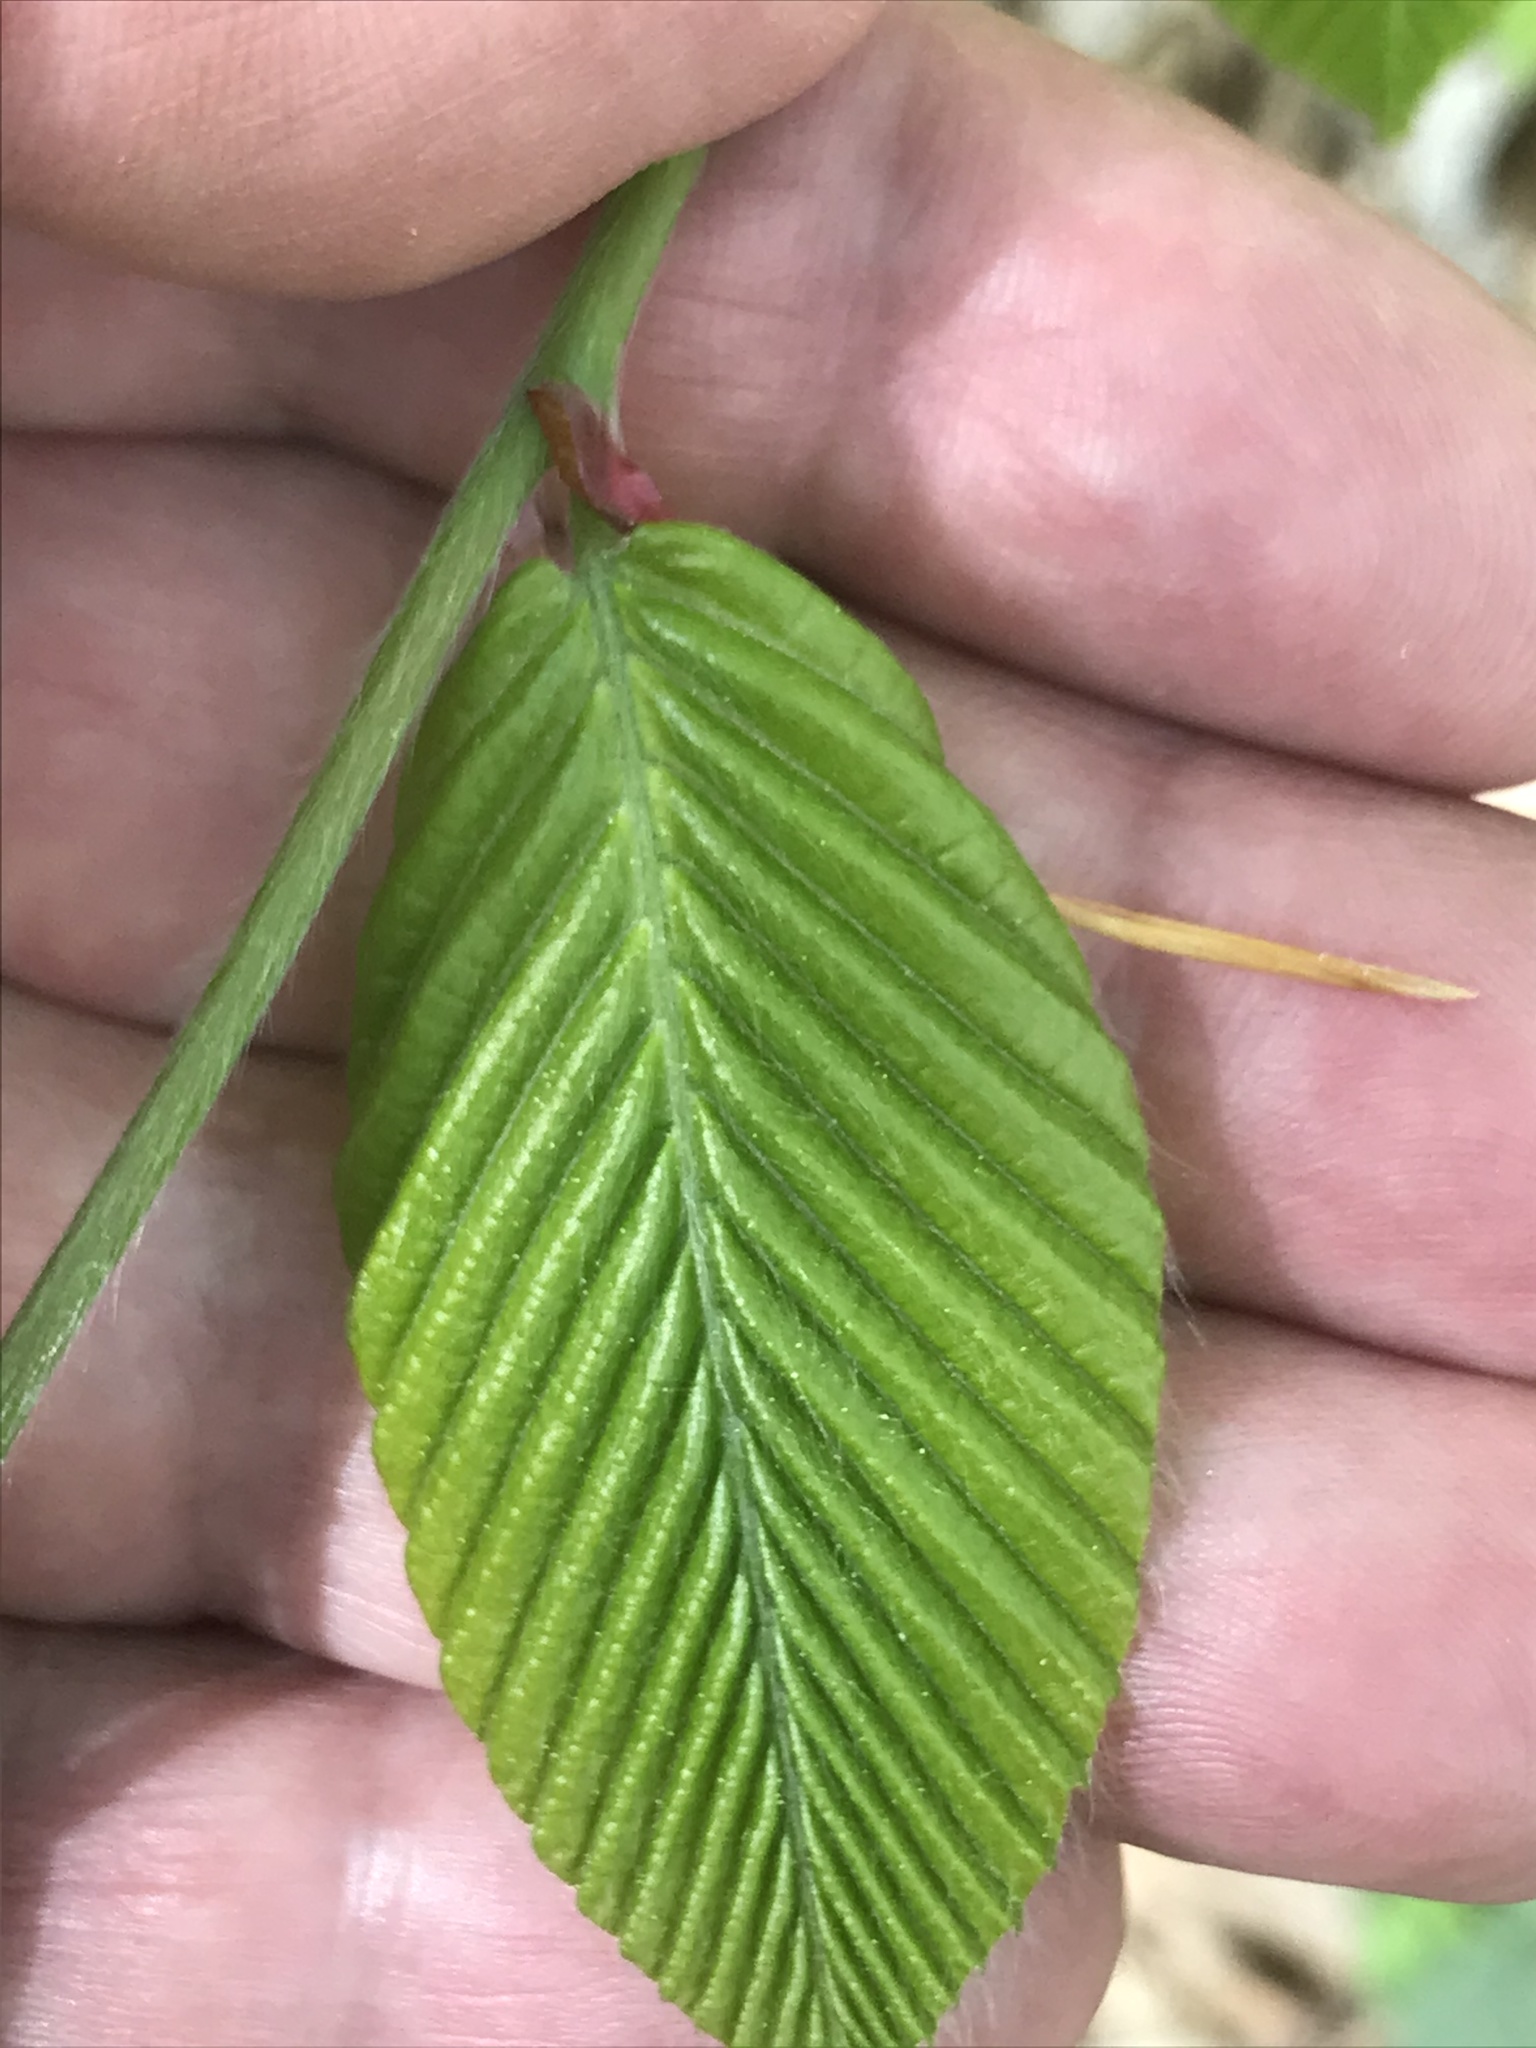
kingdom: Plantae
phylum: Tracheophyta
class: Magnoliopsida
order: Fagales
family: Fagaceae
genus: Fagus
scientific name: Fagus grandifolia
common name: American beech
